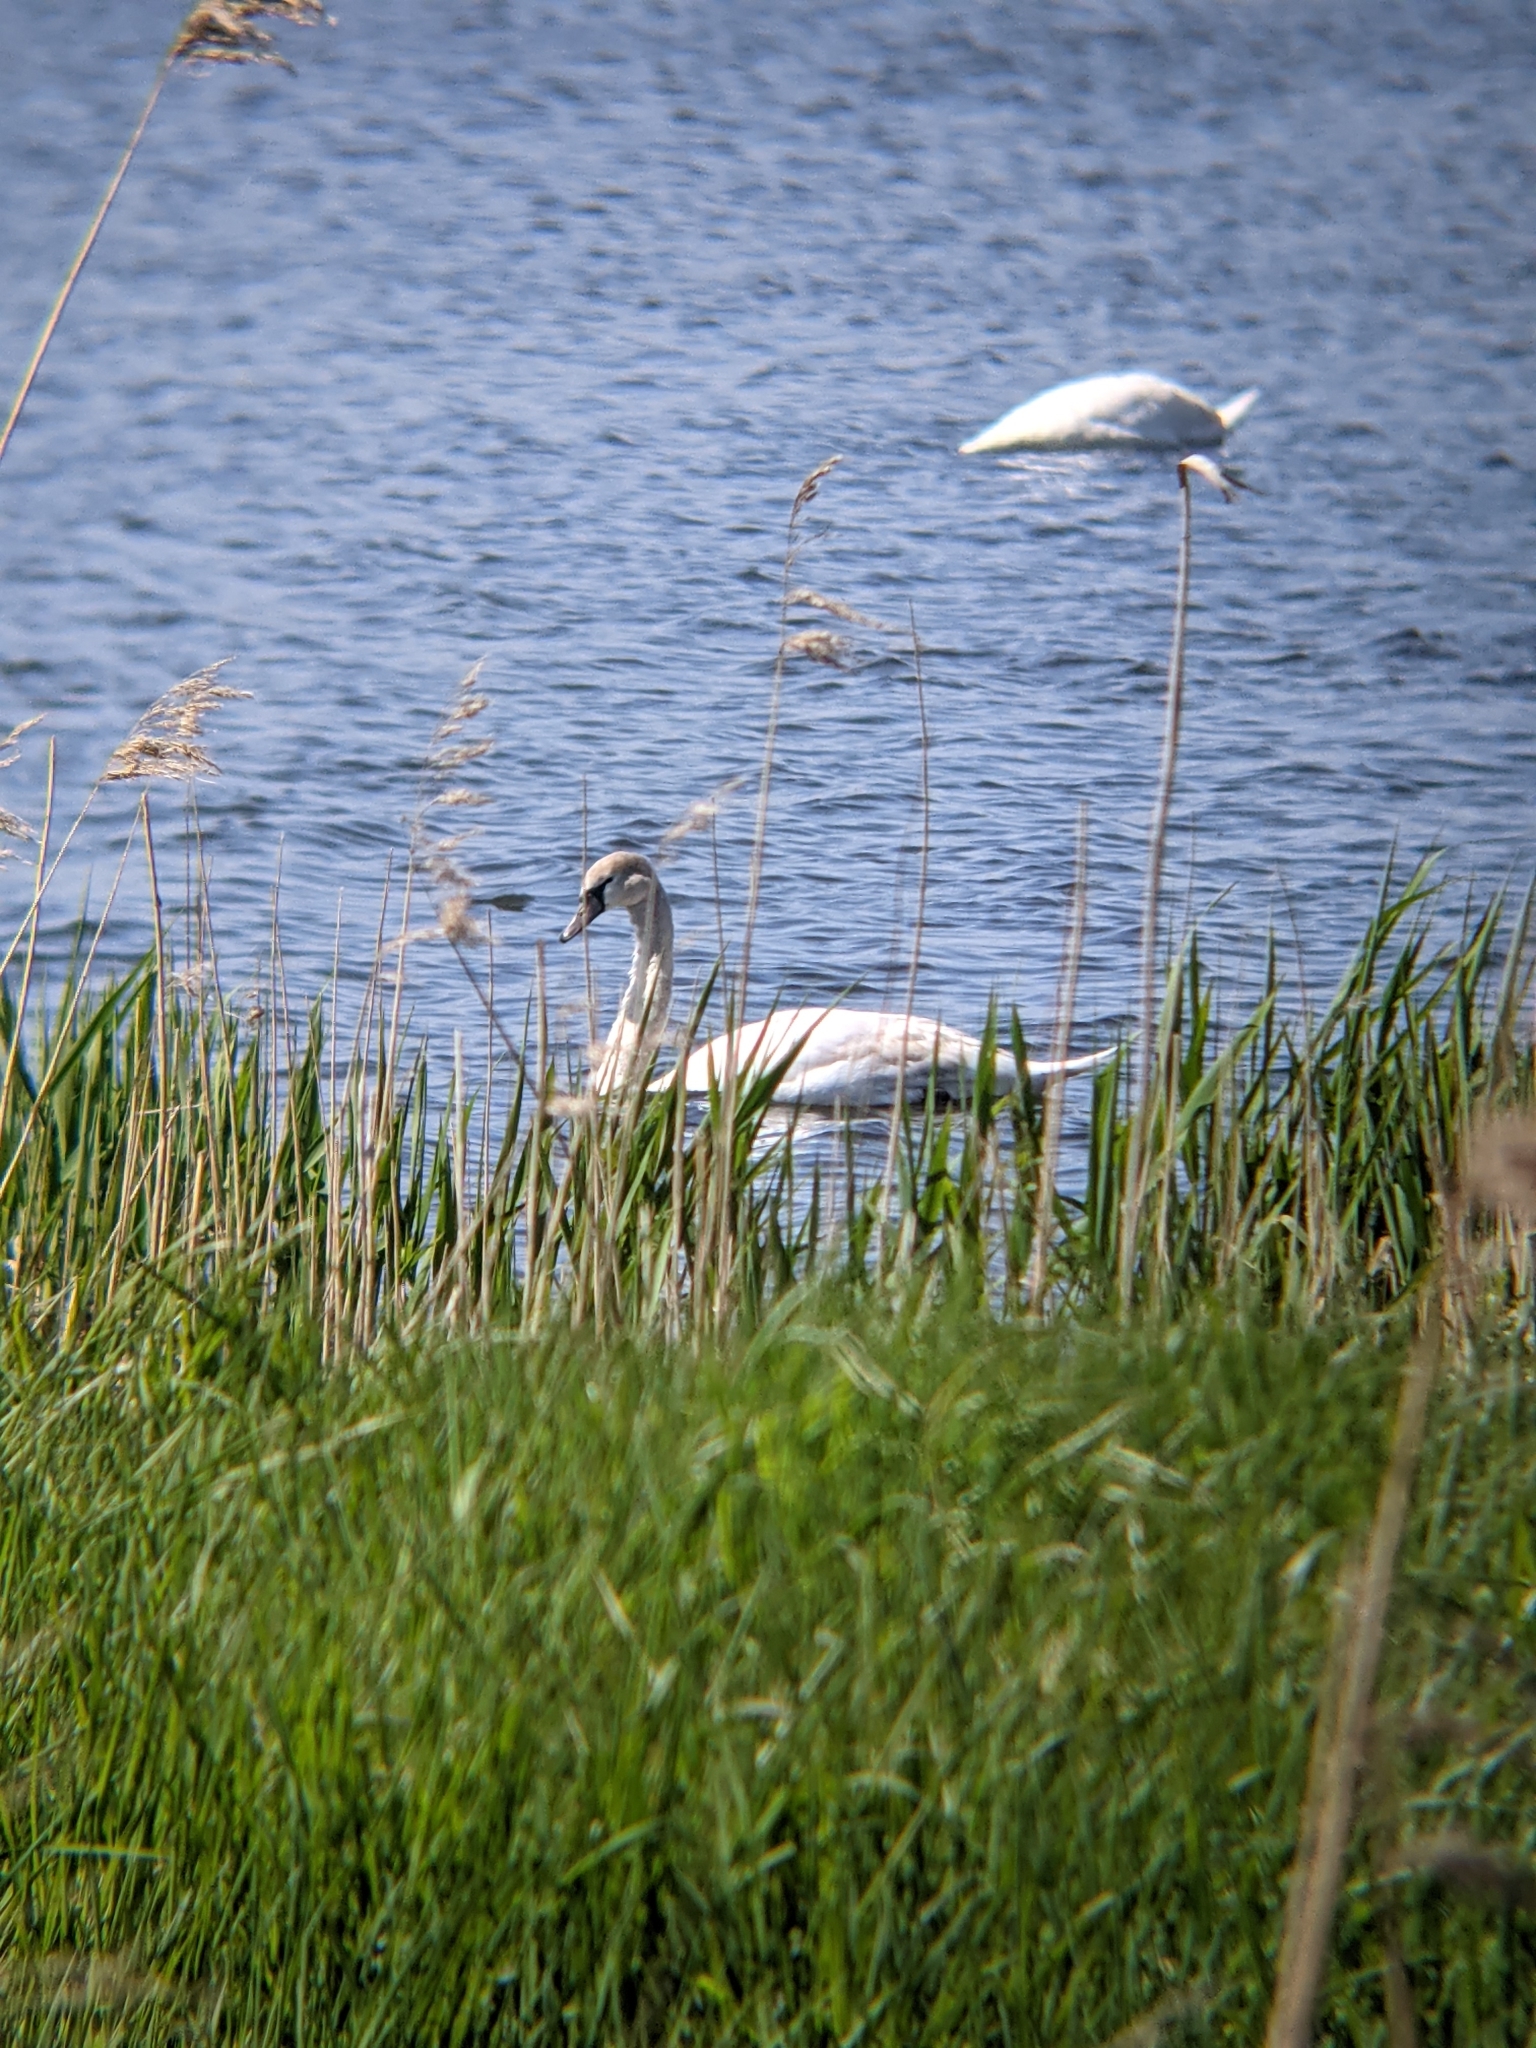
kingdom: Animalia
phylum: Chordata
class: Aves
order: Anseriformes
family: Anatidae
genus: Cygnus
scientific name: Cygnus olor
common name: Mute swan
